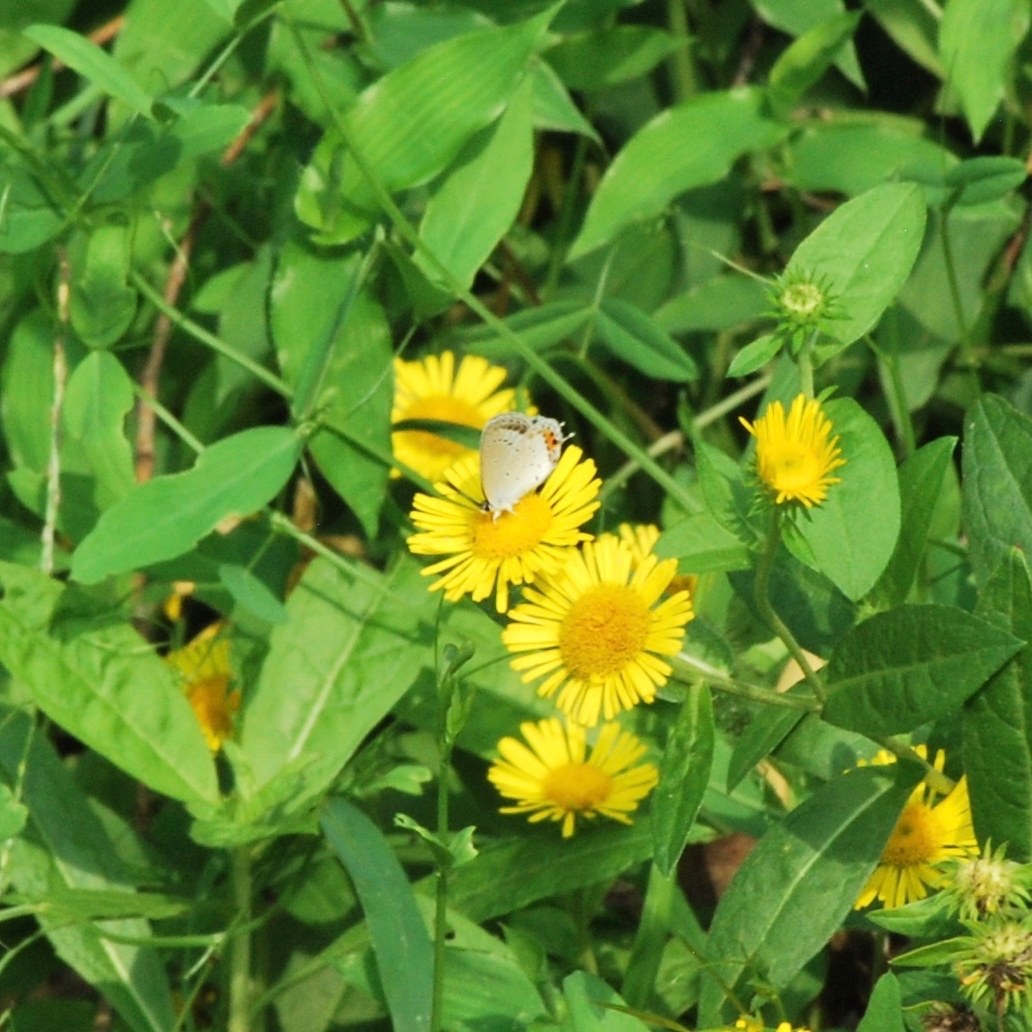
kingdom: Animalia
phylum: Arthropoda
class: Insecta
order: Lepidoptera
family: Lycaenidae
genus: Elkalyce
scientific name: Elkalyce argiades
